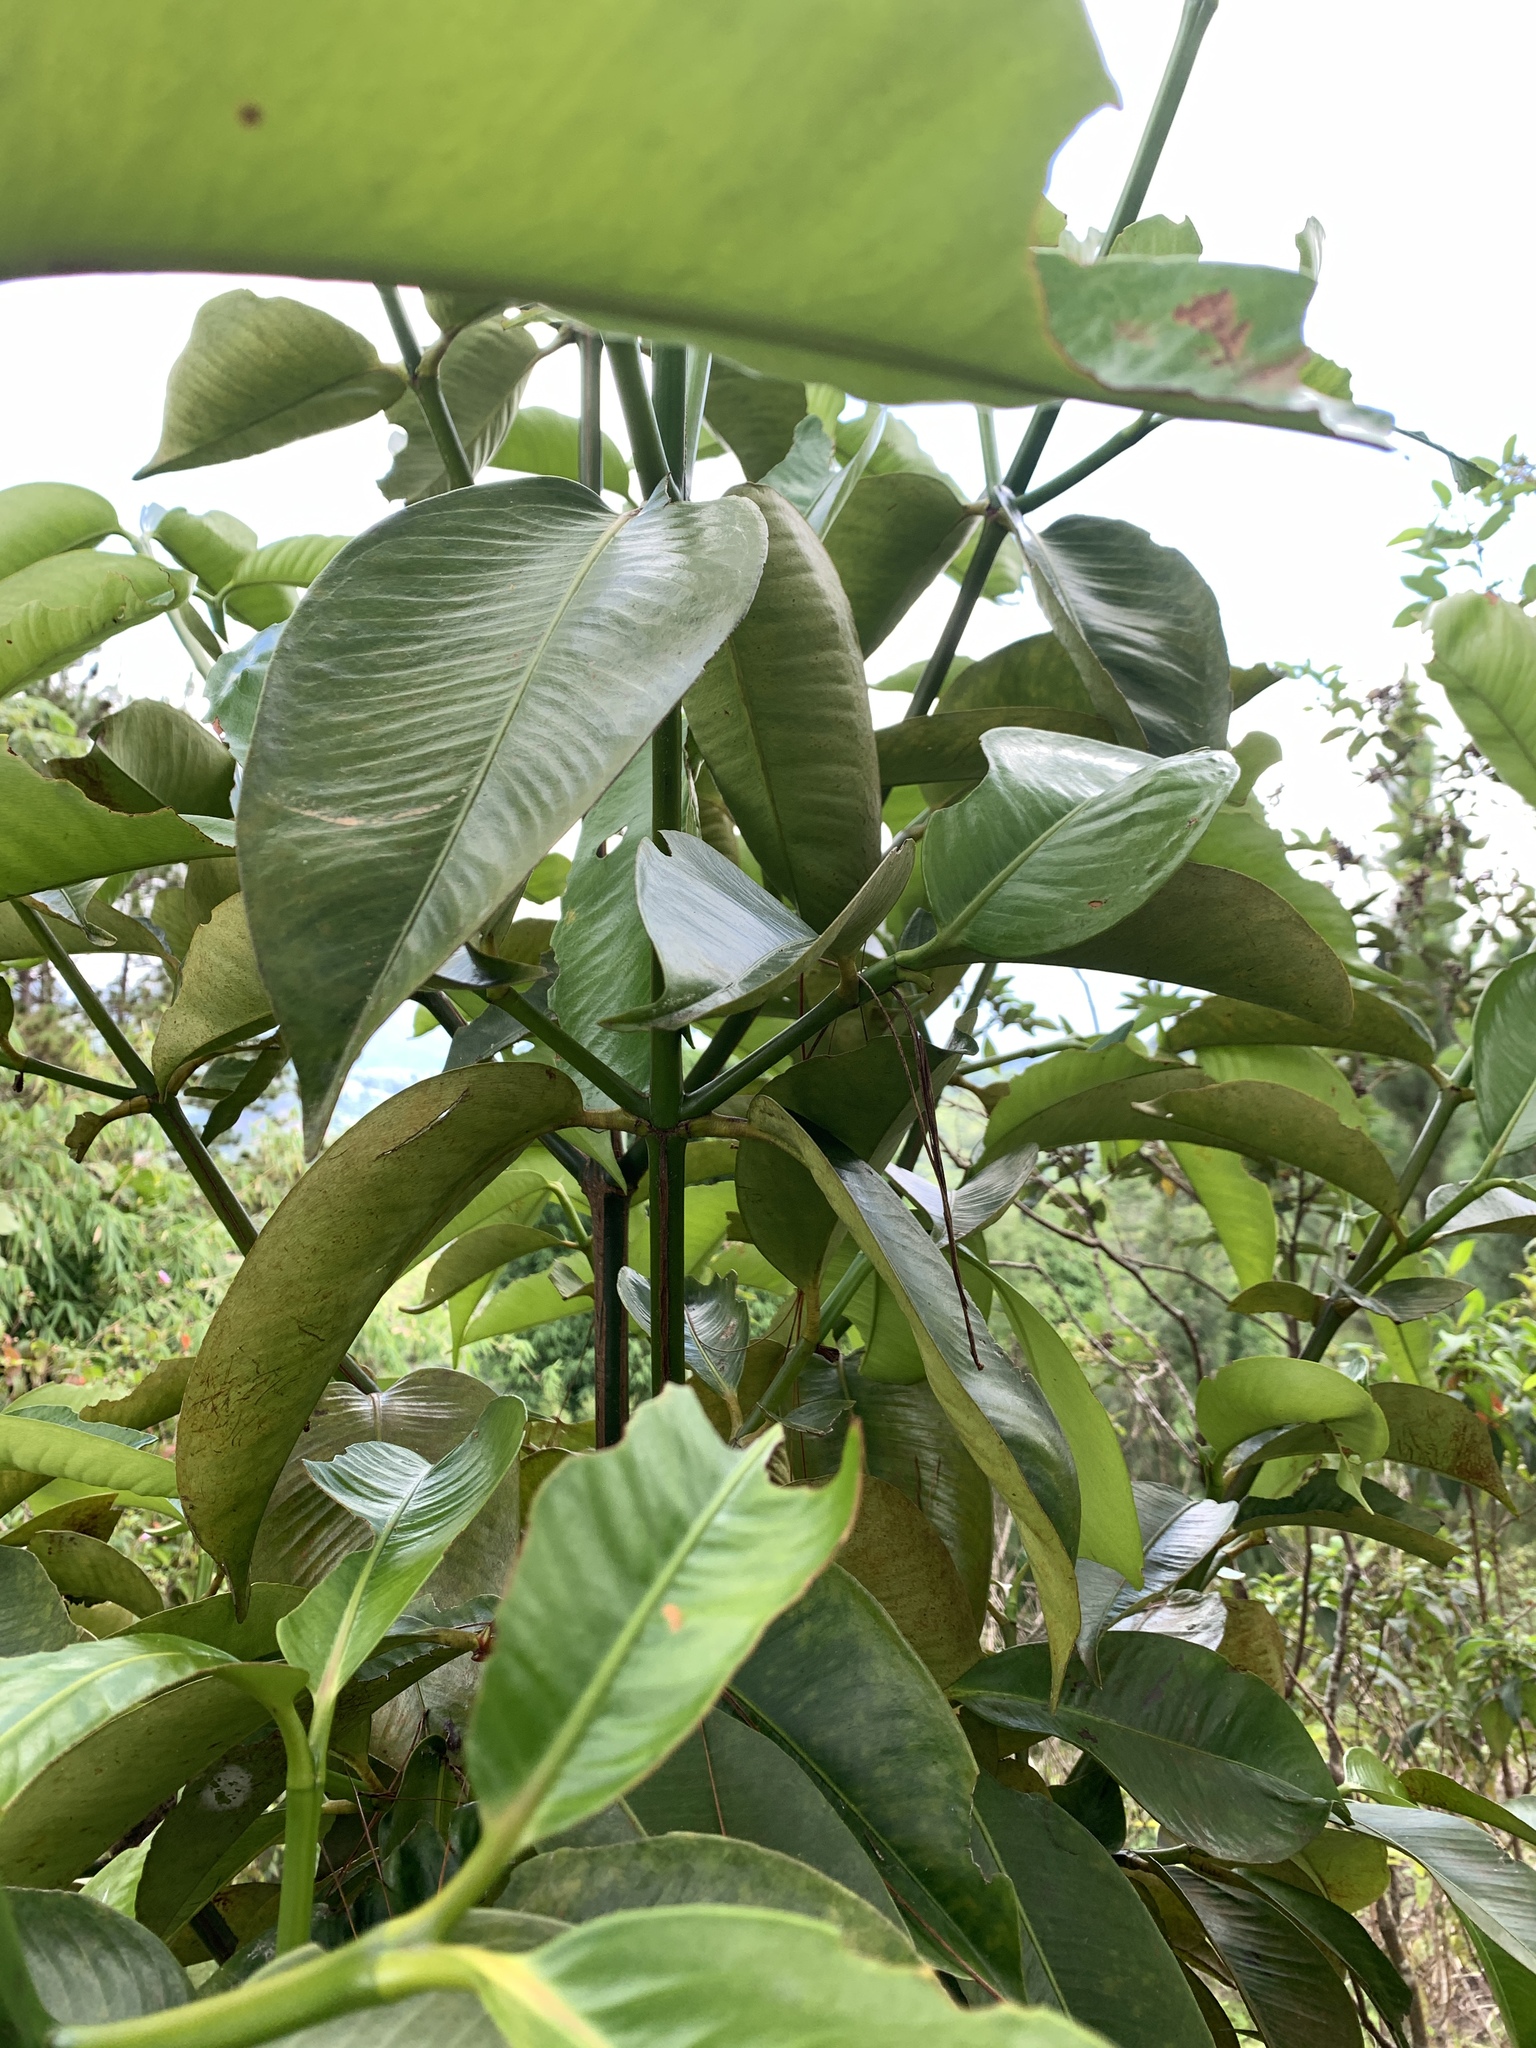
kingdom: Plantae
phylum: Tracheophyta
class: Magnoliopsida
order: Malpighiales
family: Clusiaceae
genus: Garcinia
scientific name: Garcinia mangostana
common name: Mangosteen
